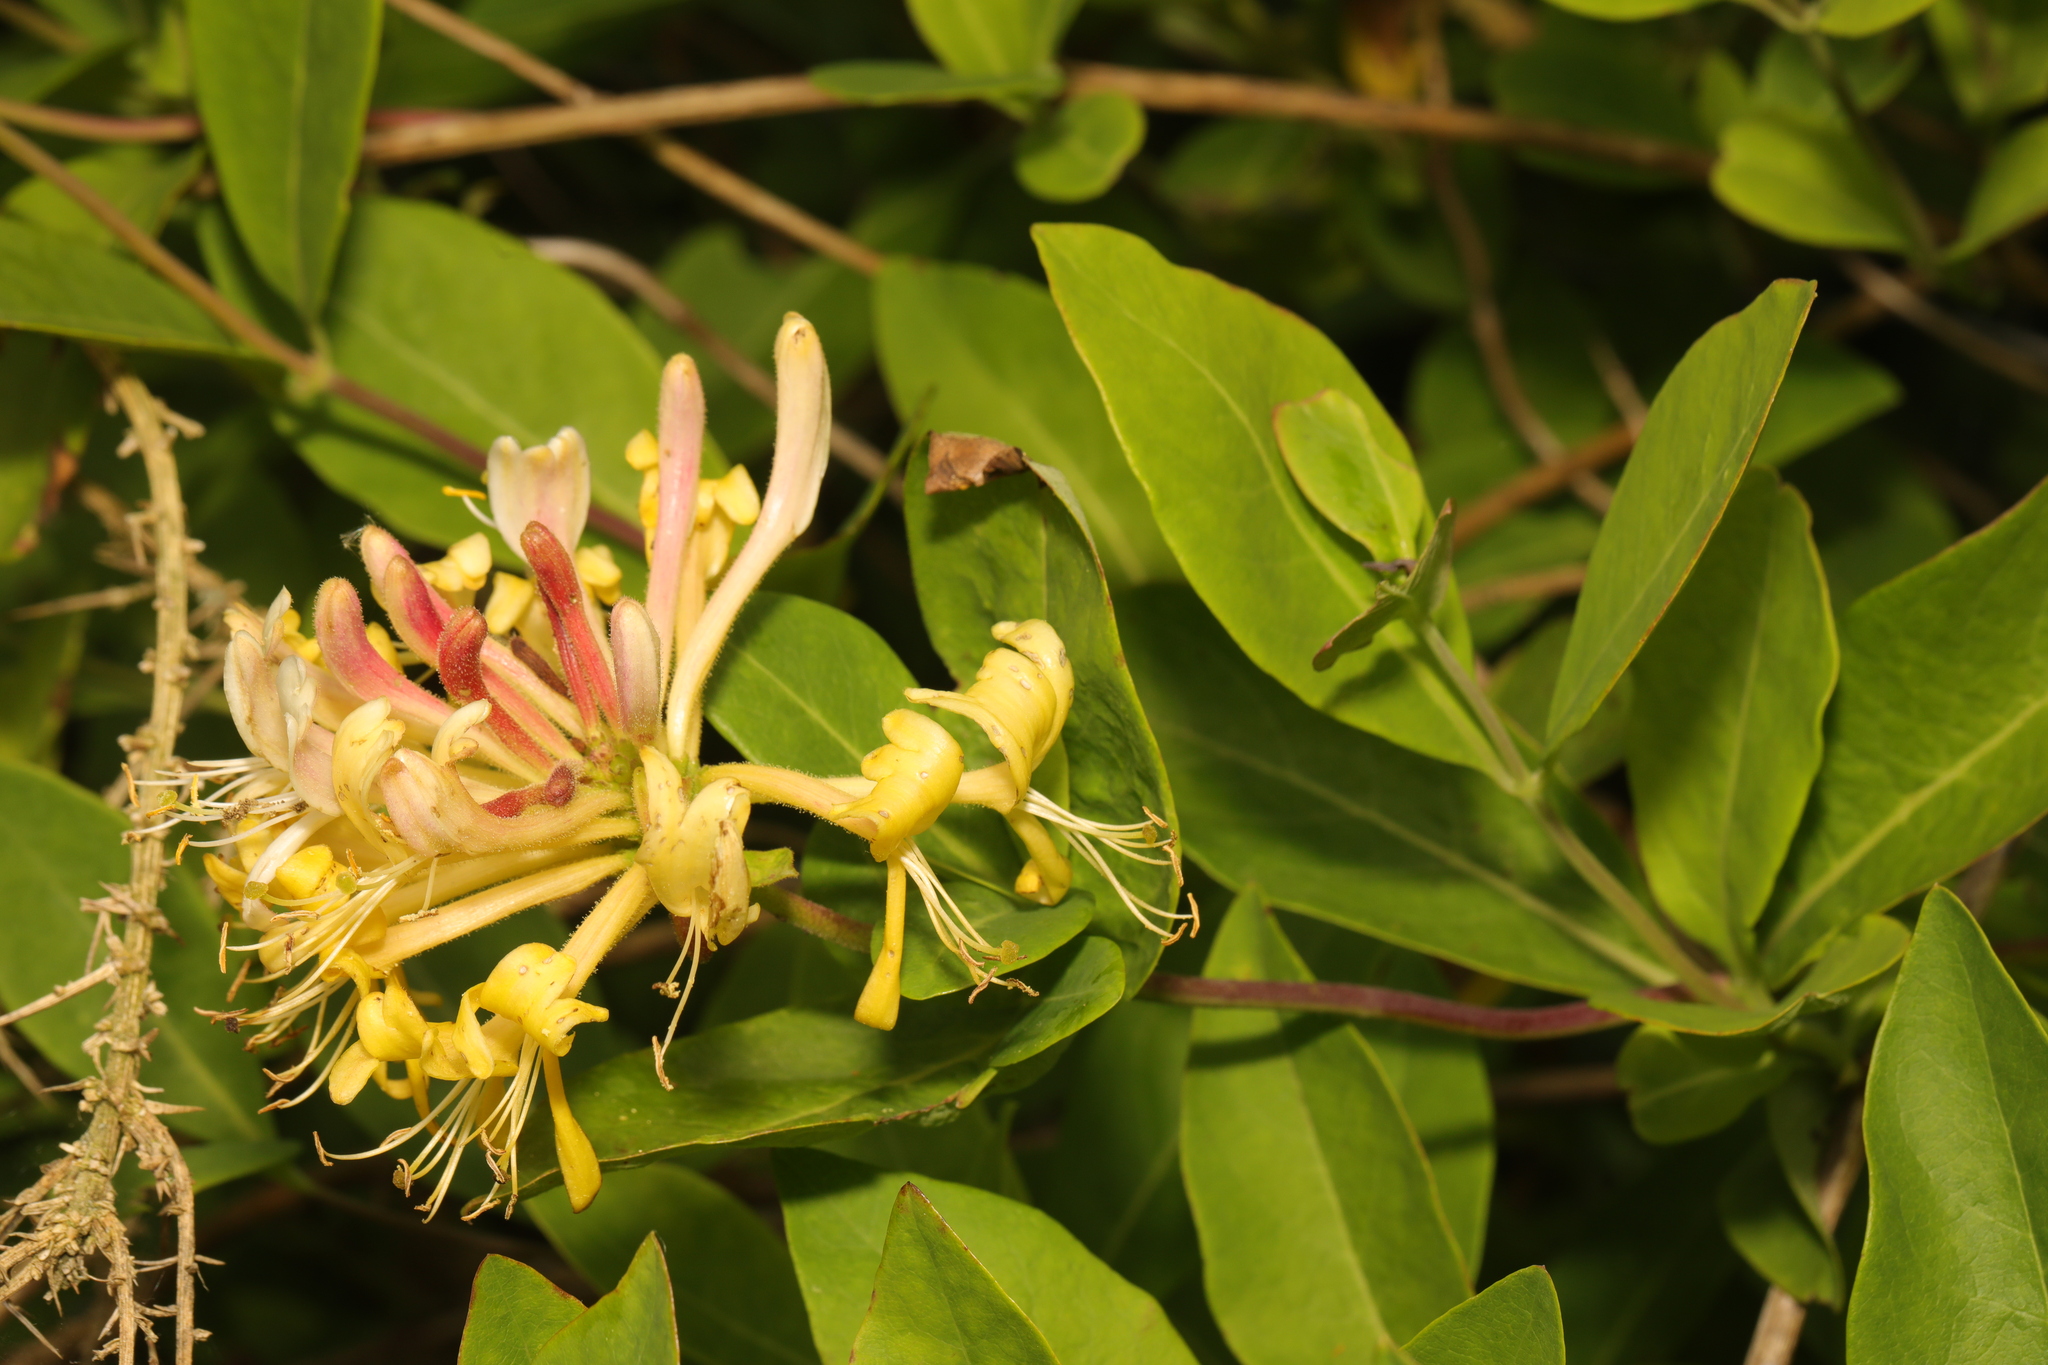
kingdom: Plantae
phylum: Tracheophyta
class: Magnoliopsida
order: Dipsacales
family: Caprifoliaceae
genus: Lonicera
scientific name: Lonicera periclymenum
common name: European honeysuckle
